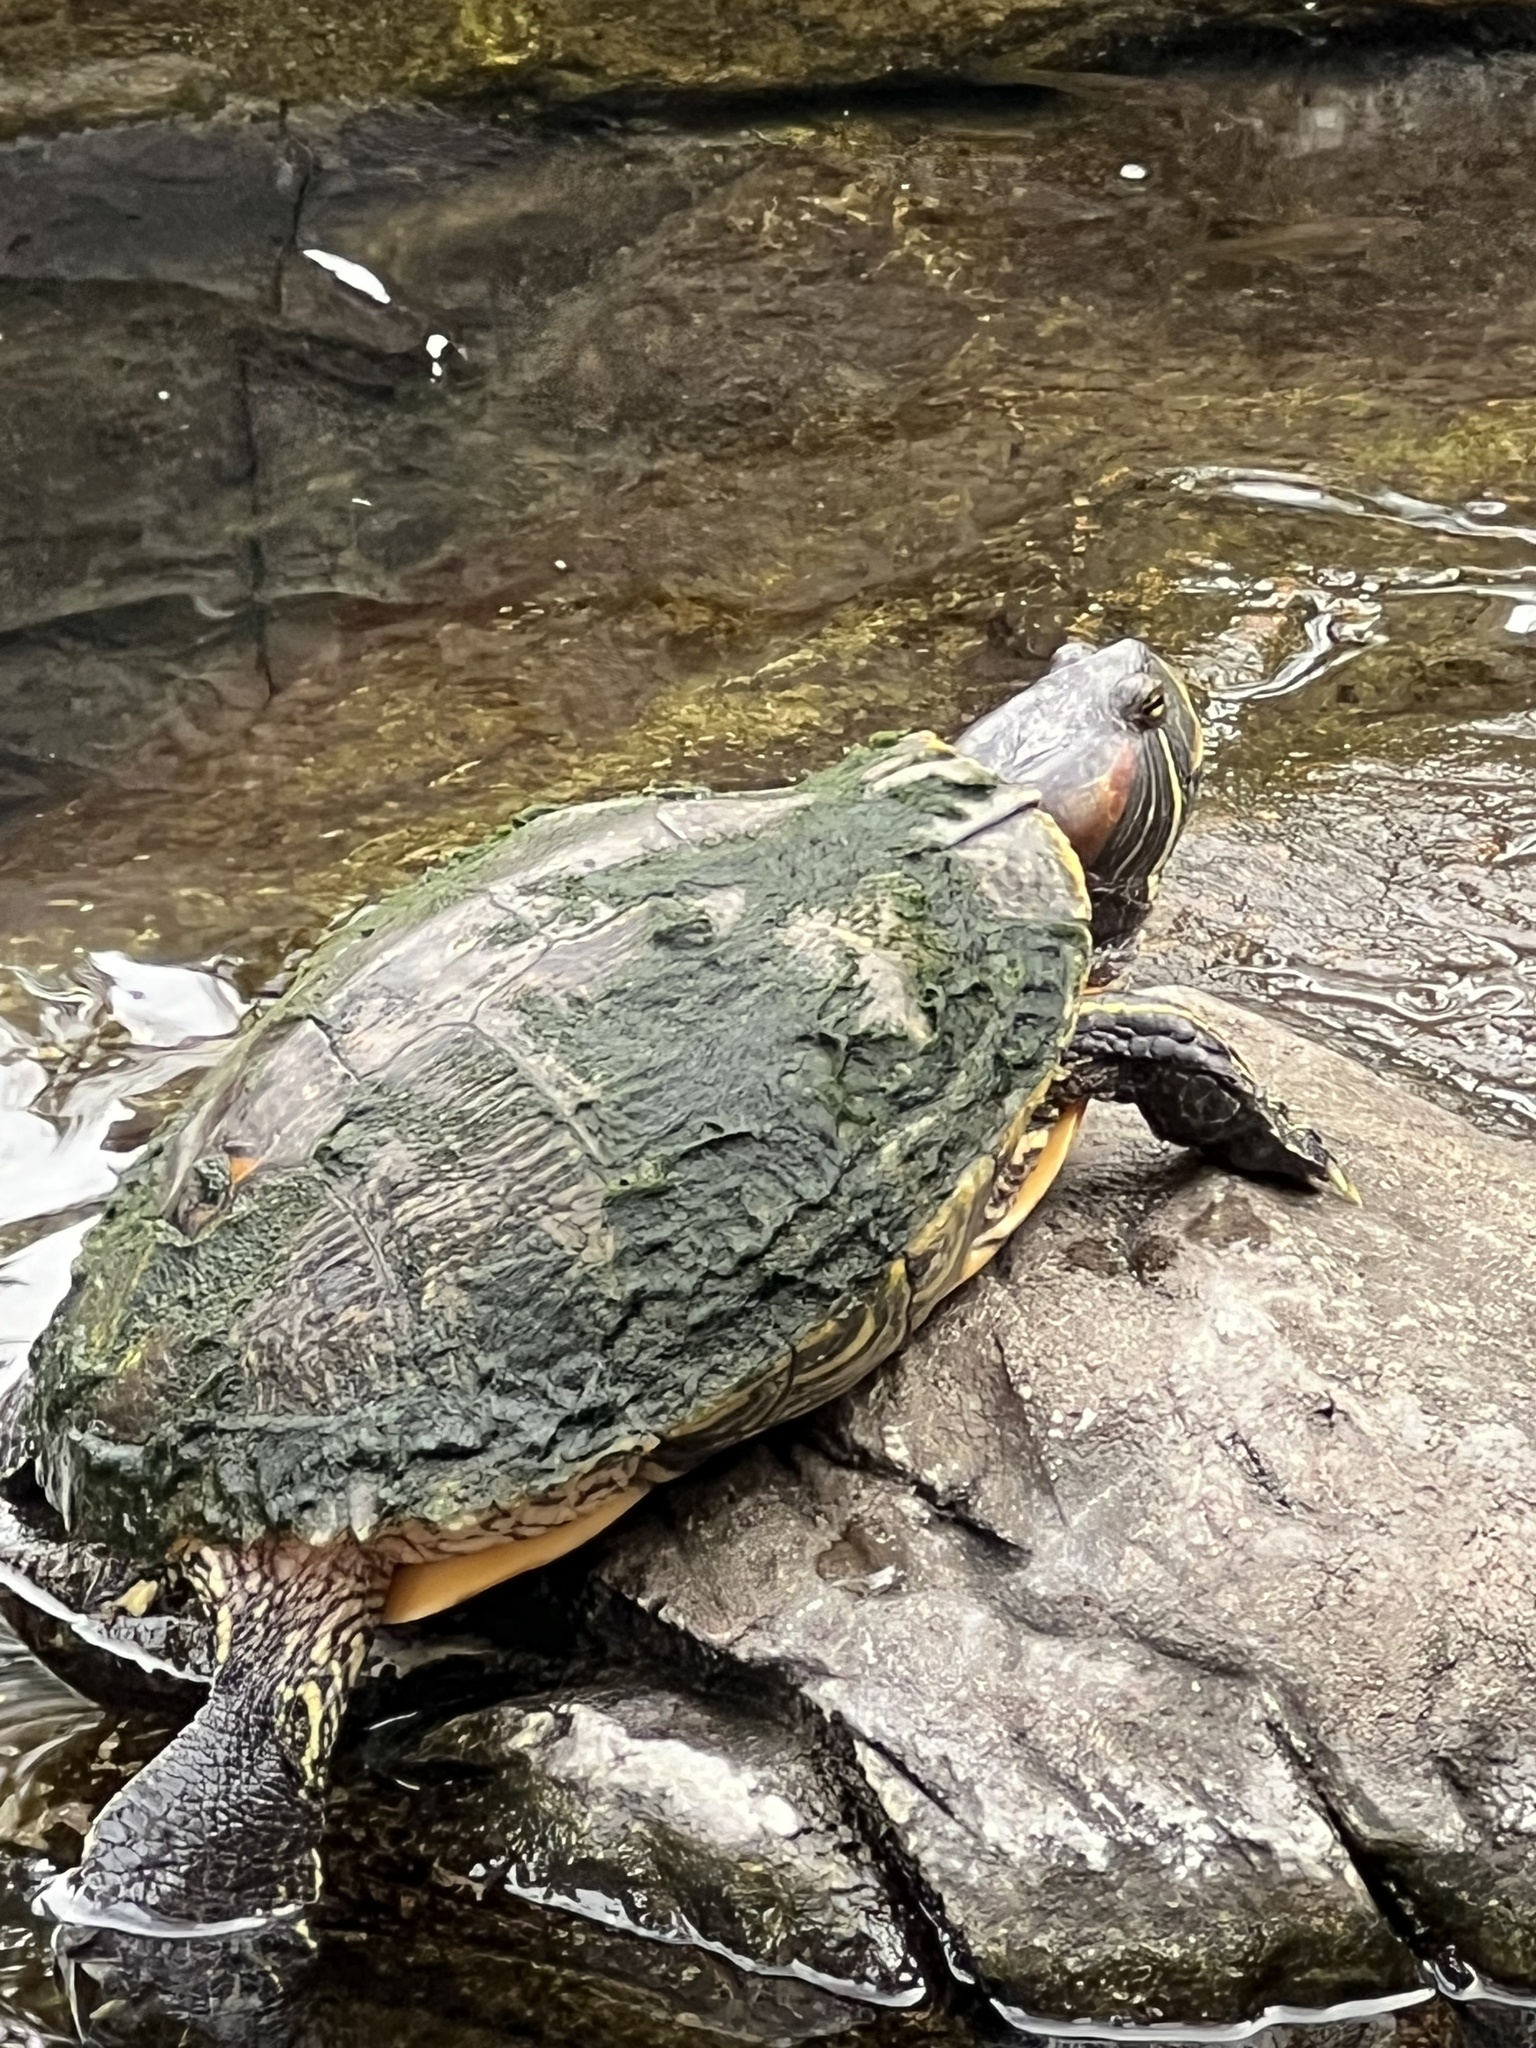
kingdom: Animalia
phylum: Chordata
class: Testudines
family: Emydidae
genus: Trachemys
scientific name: Trachemys scripta
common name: Slider
